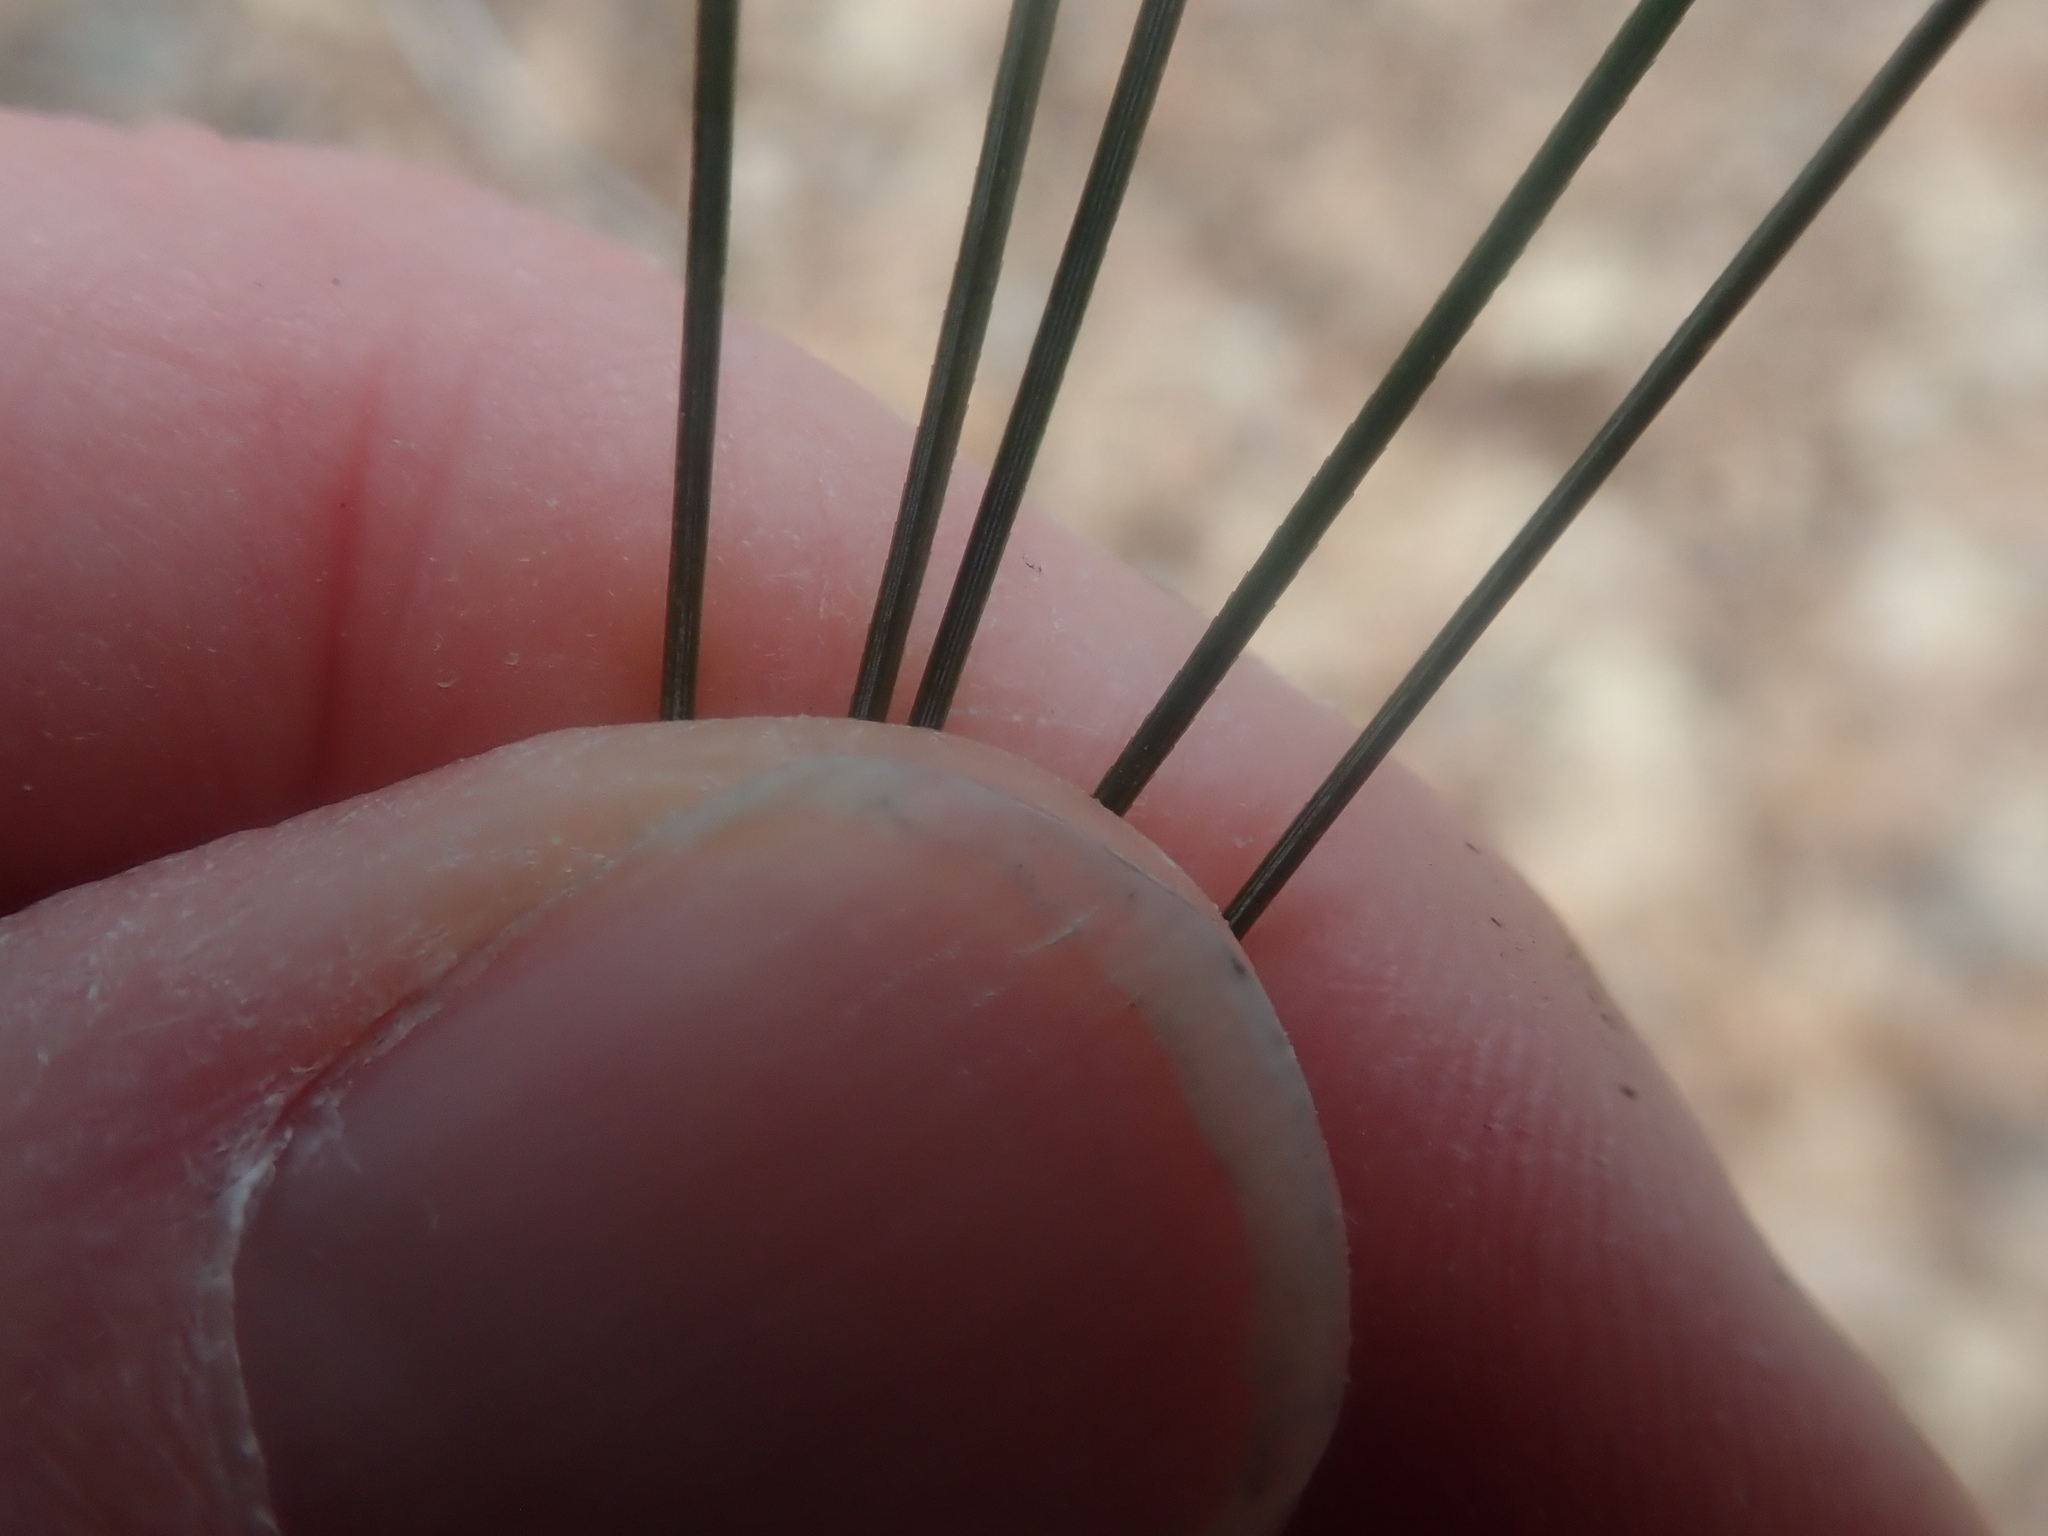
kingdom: Plantae
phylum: Tracheophyta
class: Pinopsida
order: Pinales
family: Pinaceae
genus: Pinus
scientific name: Pinus strobus
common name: Weymouth pine
